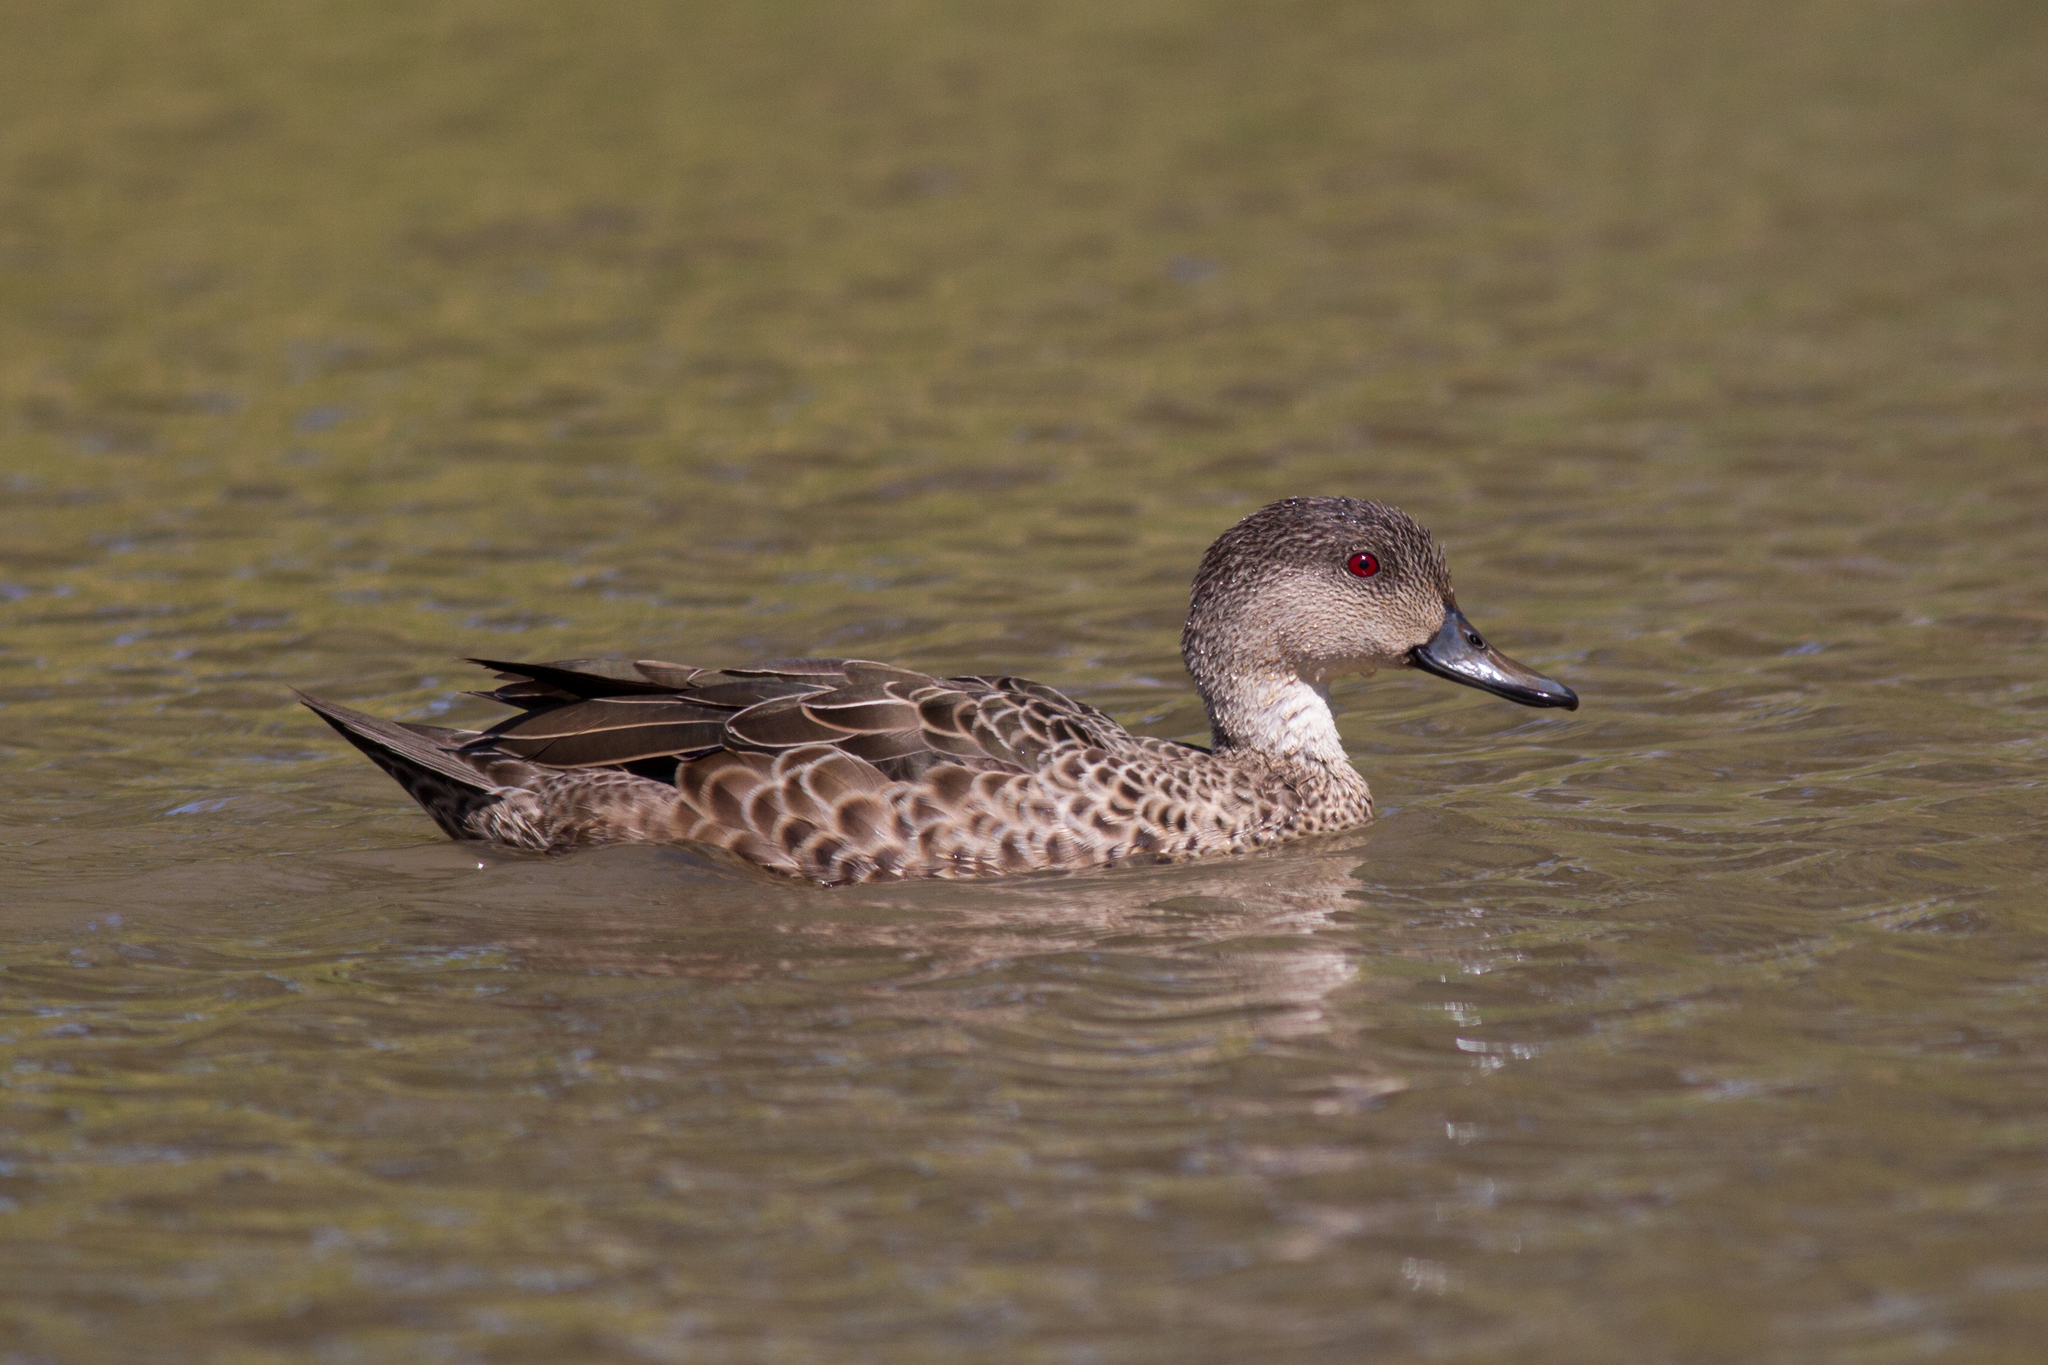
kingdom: Animalia
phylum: Chordata
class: Aves
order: Anseriformes
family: Anatidae
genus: Anas
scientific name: Anas gracilis
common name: Grey teal
